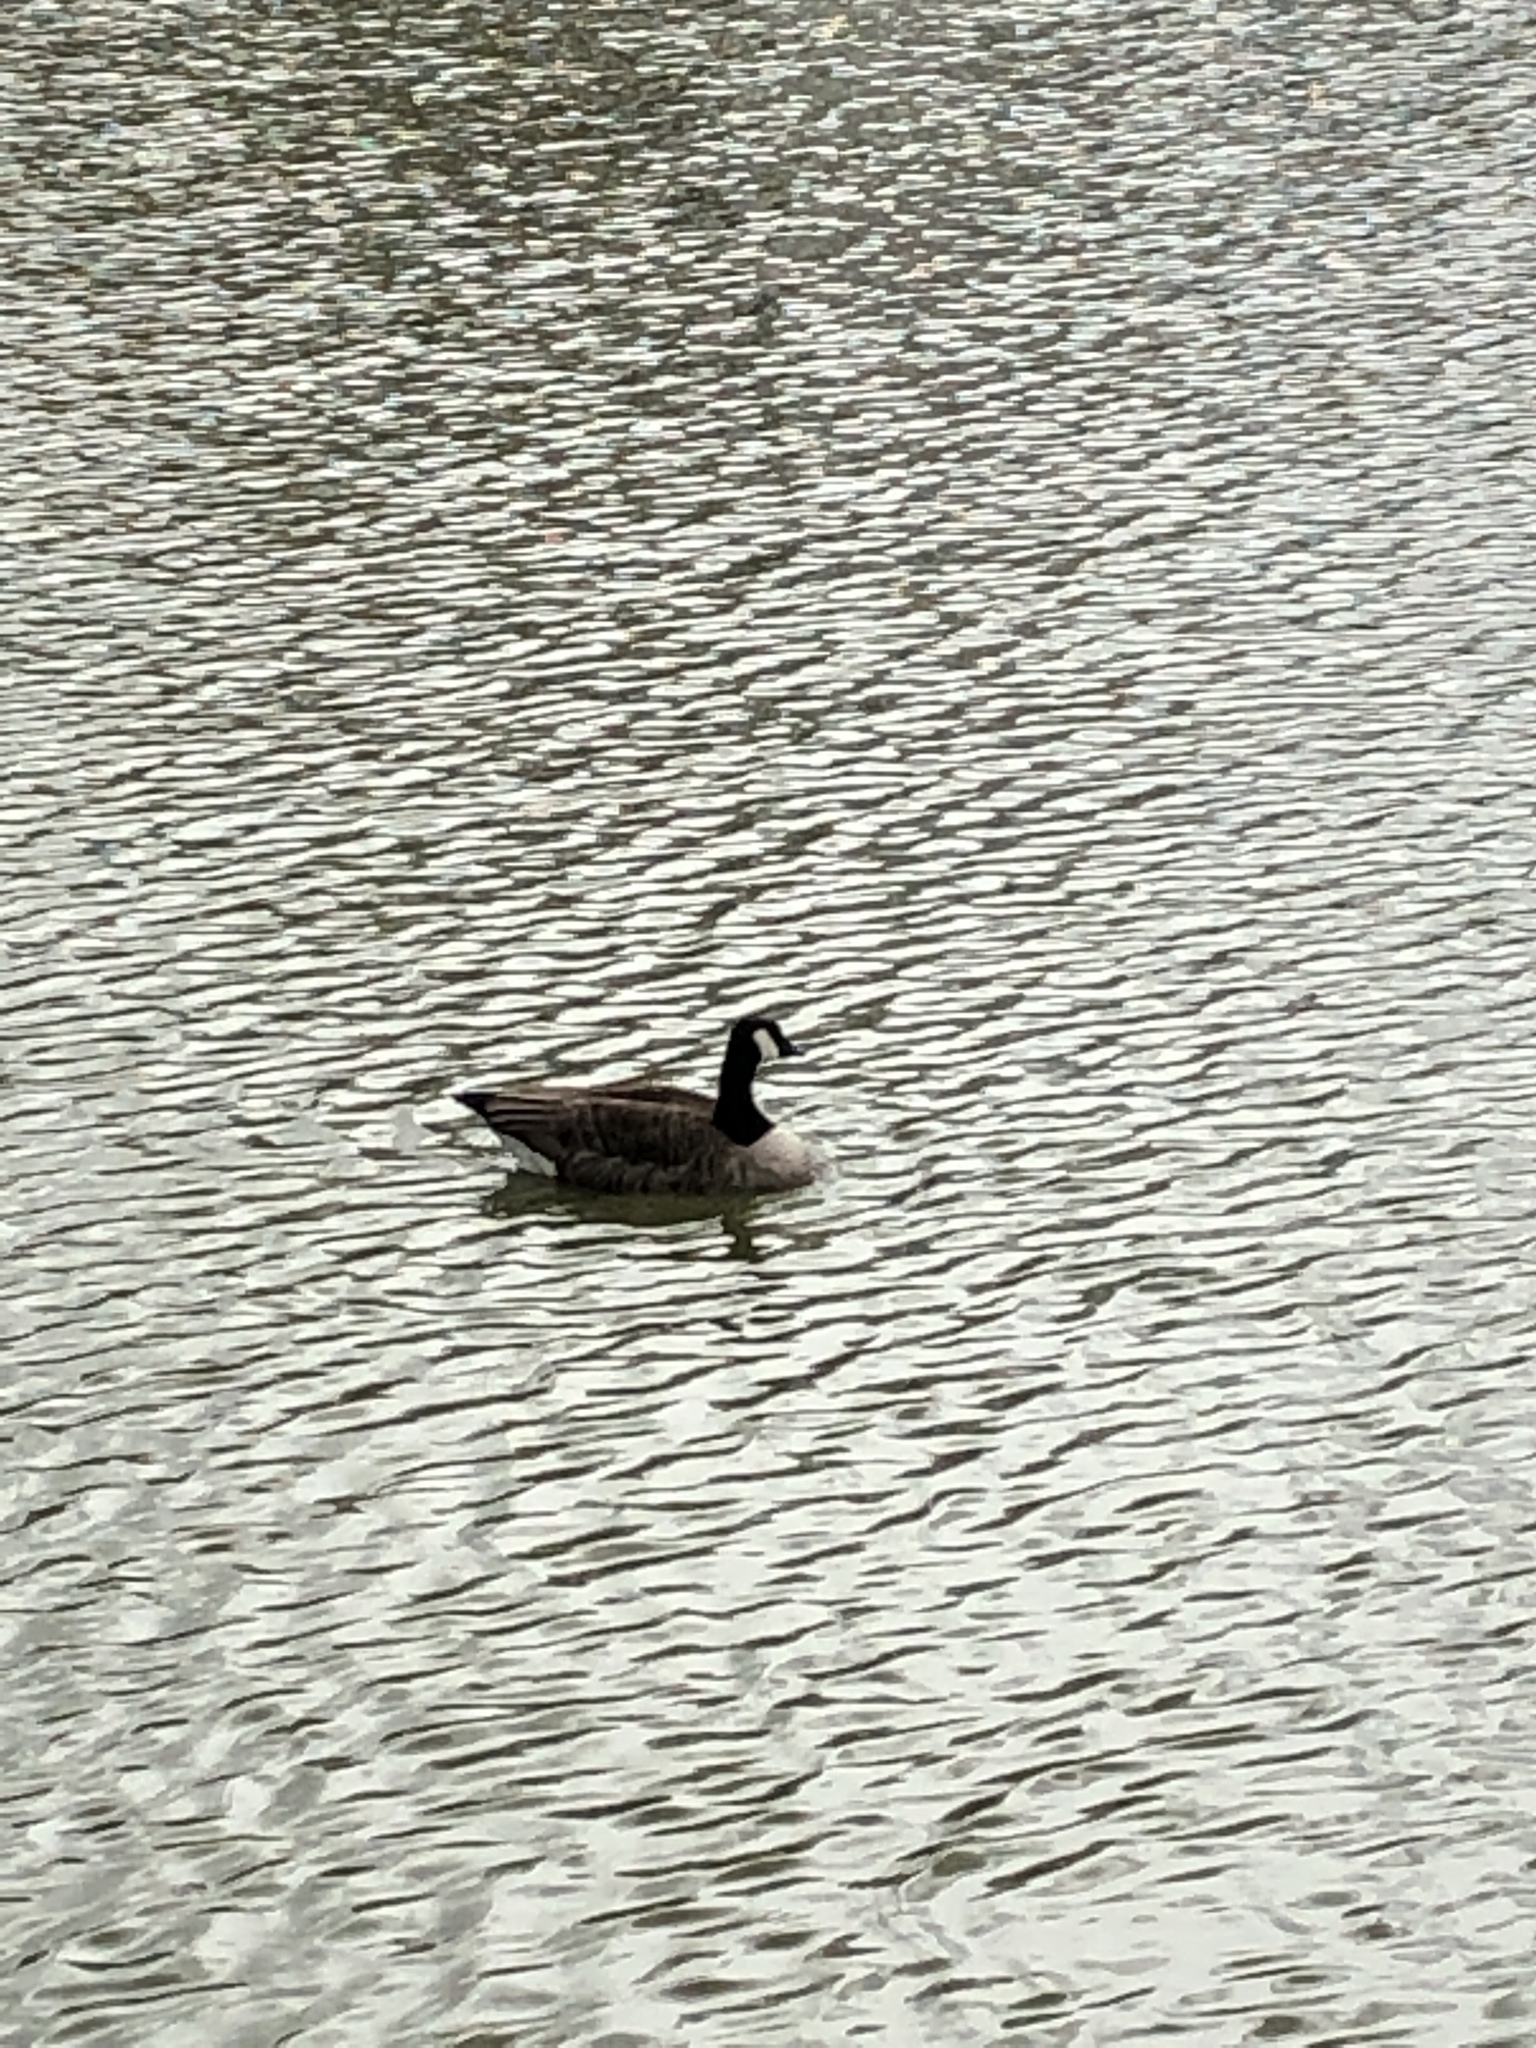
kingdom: Animalia
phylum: Chordata
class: Aves
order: Anseriformes
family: Anatidae
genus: Branta
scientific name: Branta canadensis
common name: Canada goose
